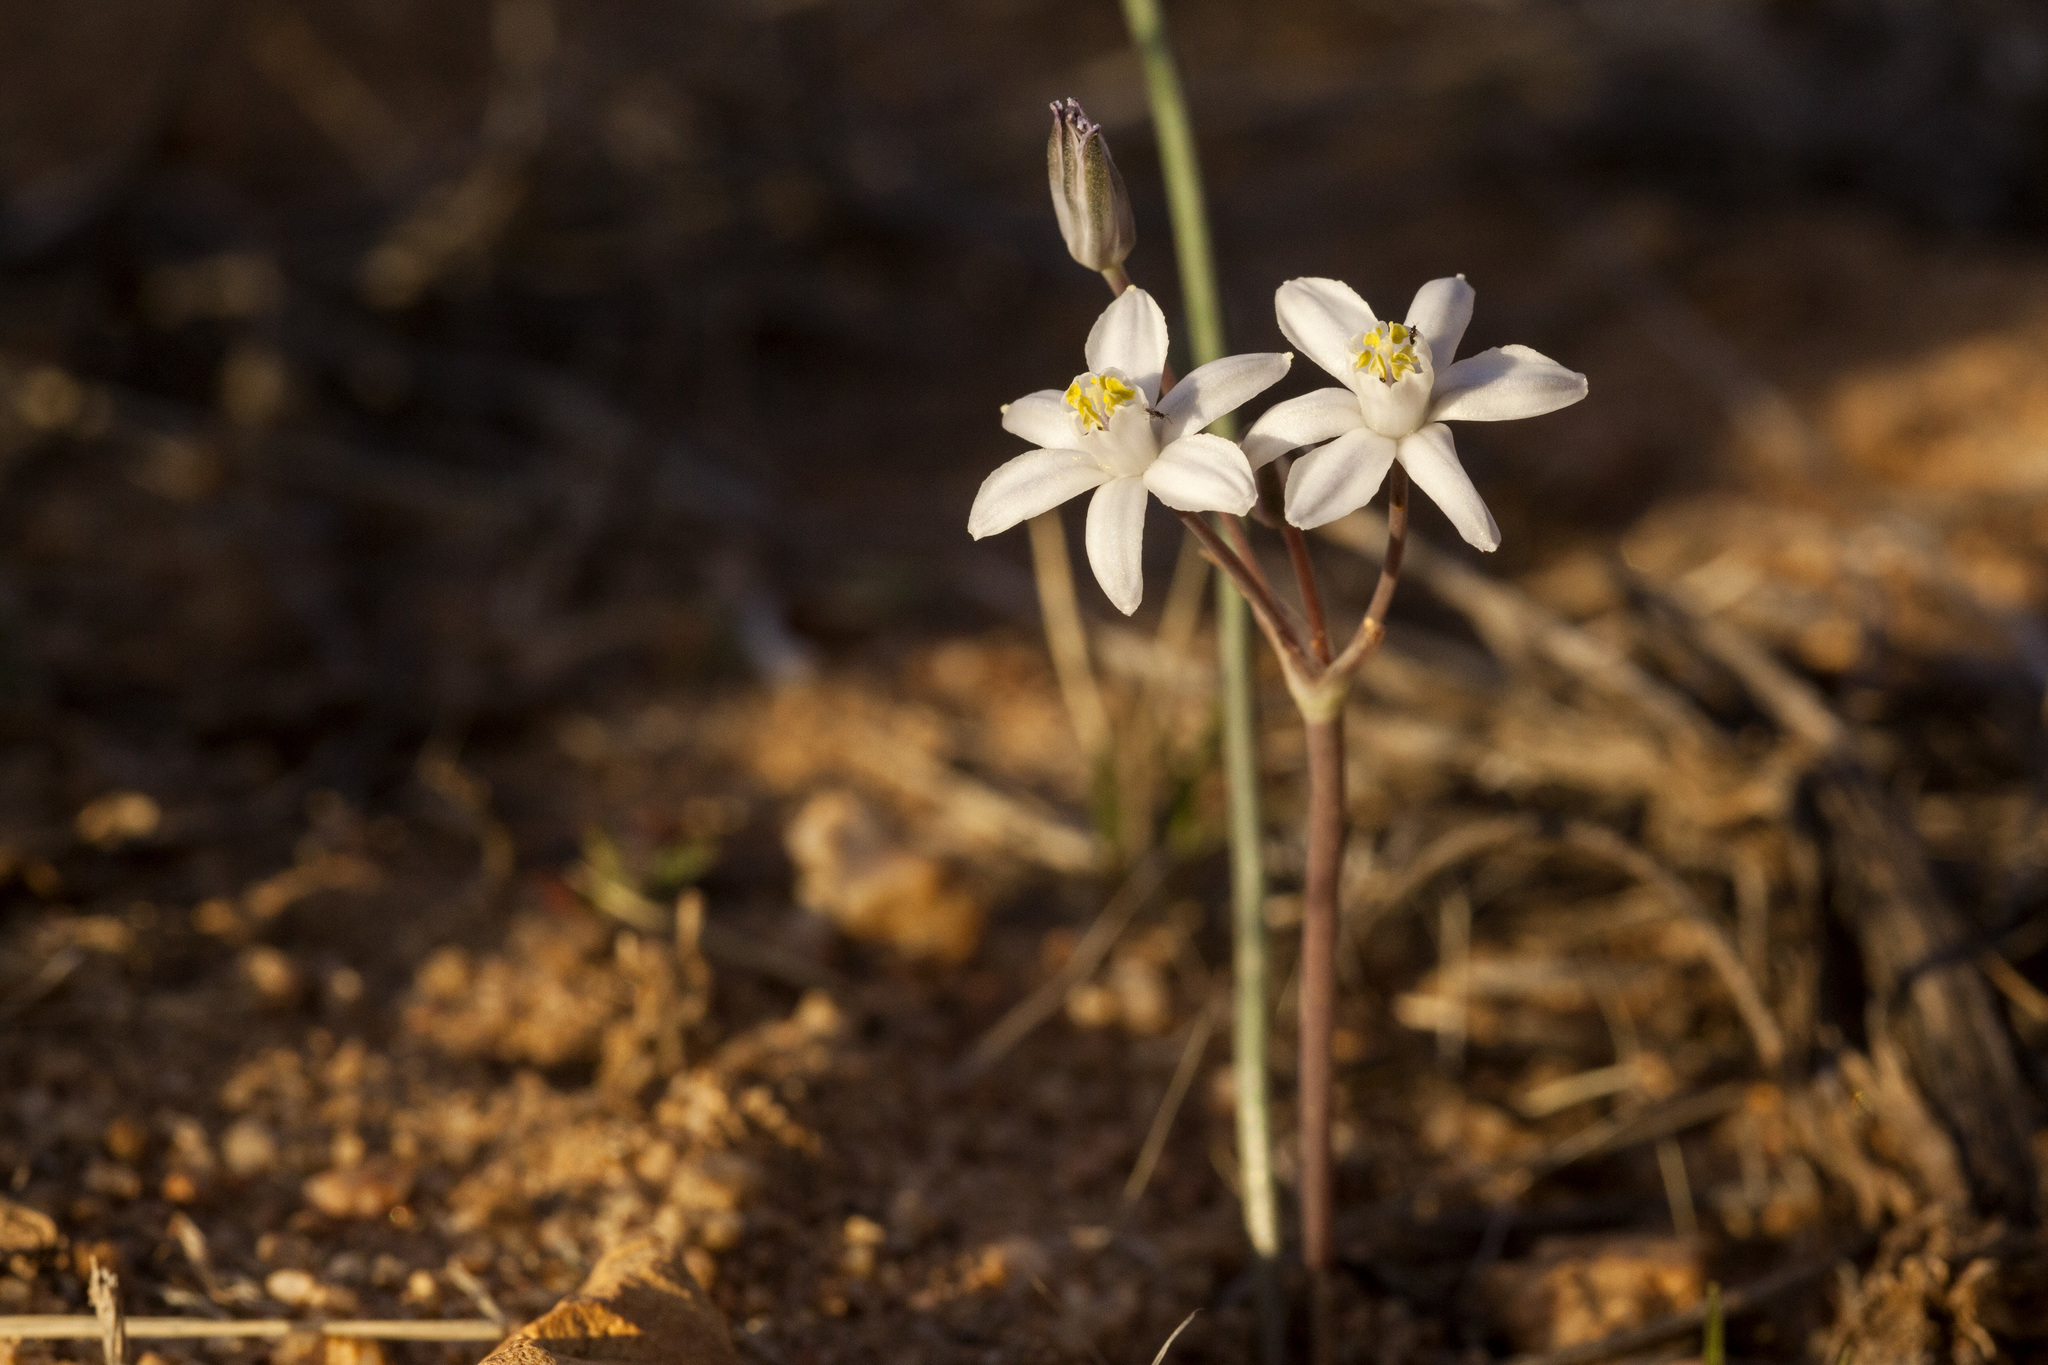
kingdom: Plantae
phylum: Tracheophyta
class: Liliopsida
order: Asparagales
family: Asparagaceae
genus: Muilla
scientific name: Muilla lordsburgana
